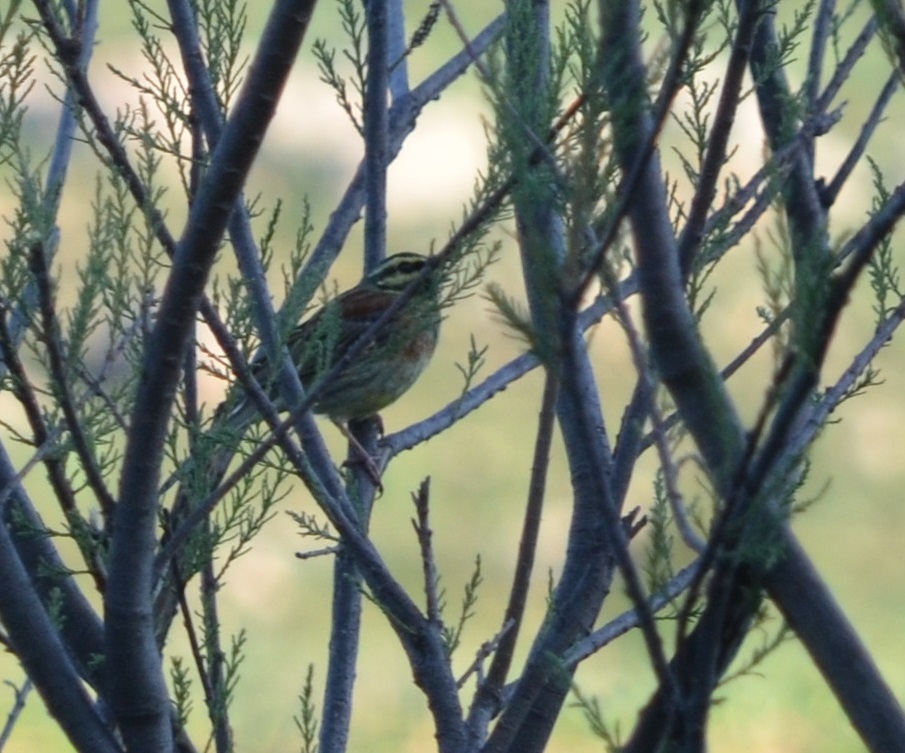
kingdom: Animalia
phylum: Chordata
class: Aves
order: Passeriformes
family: Emberizidae
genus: Emberiza
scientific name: Emberiza cirlus
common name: Cirl bunting
